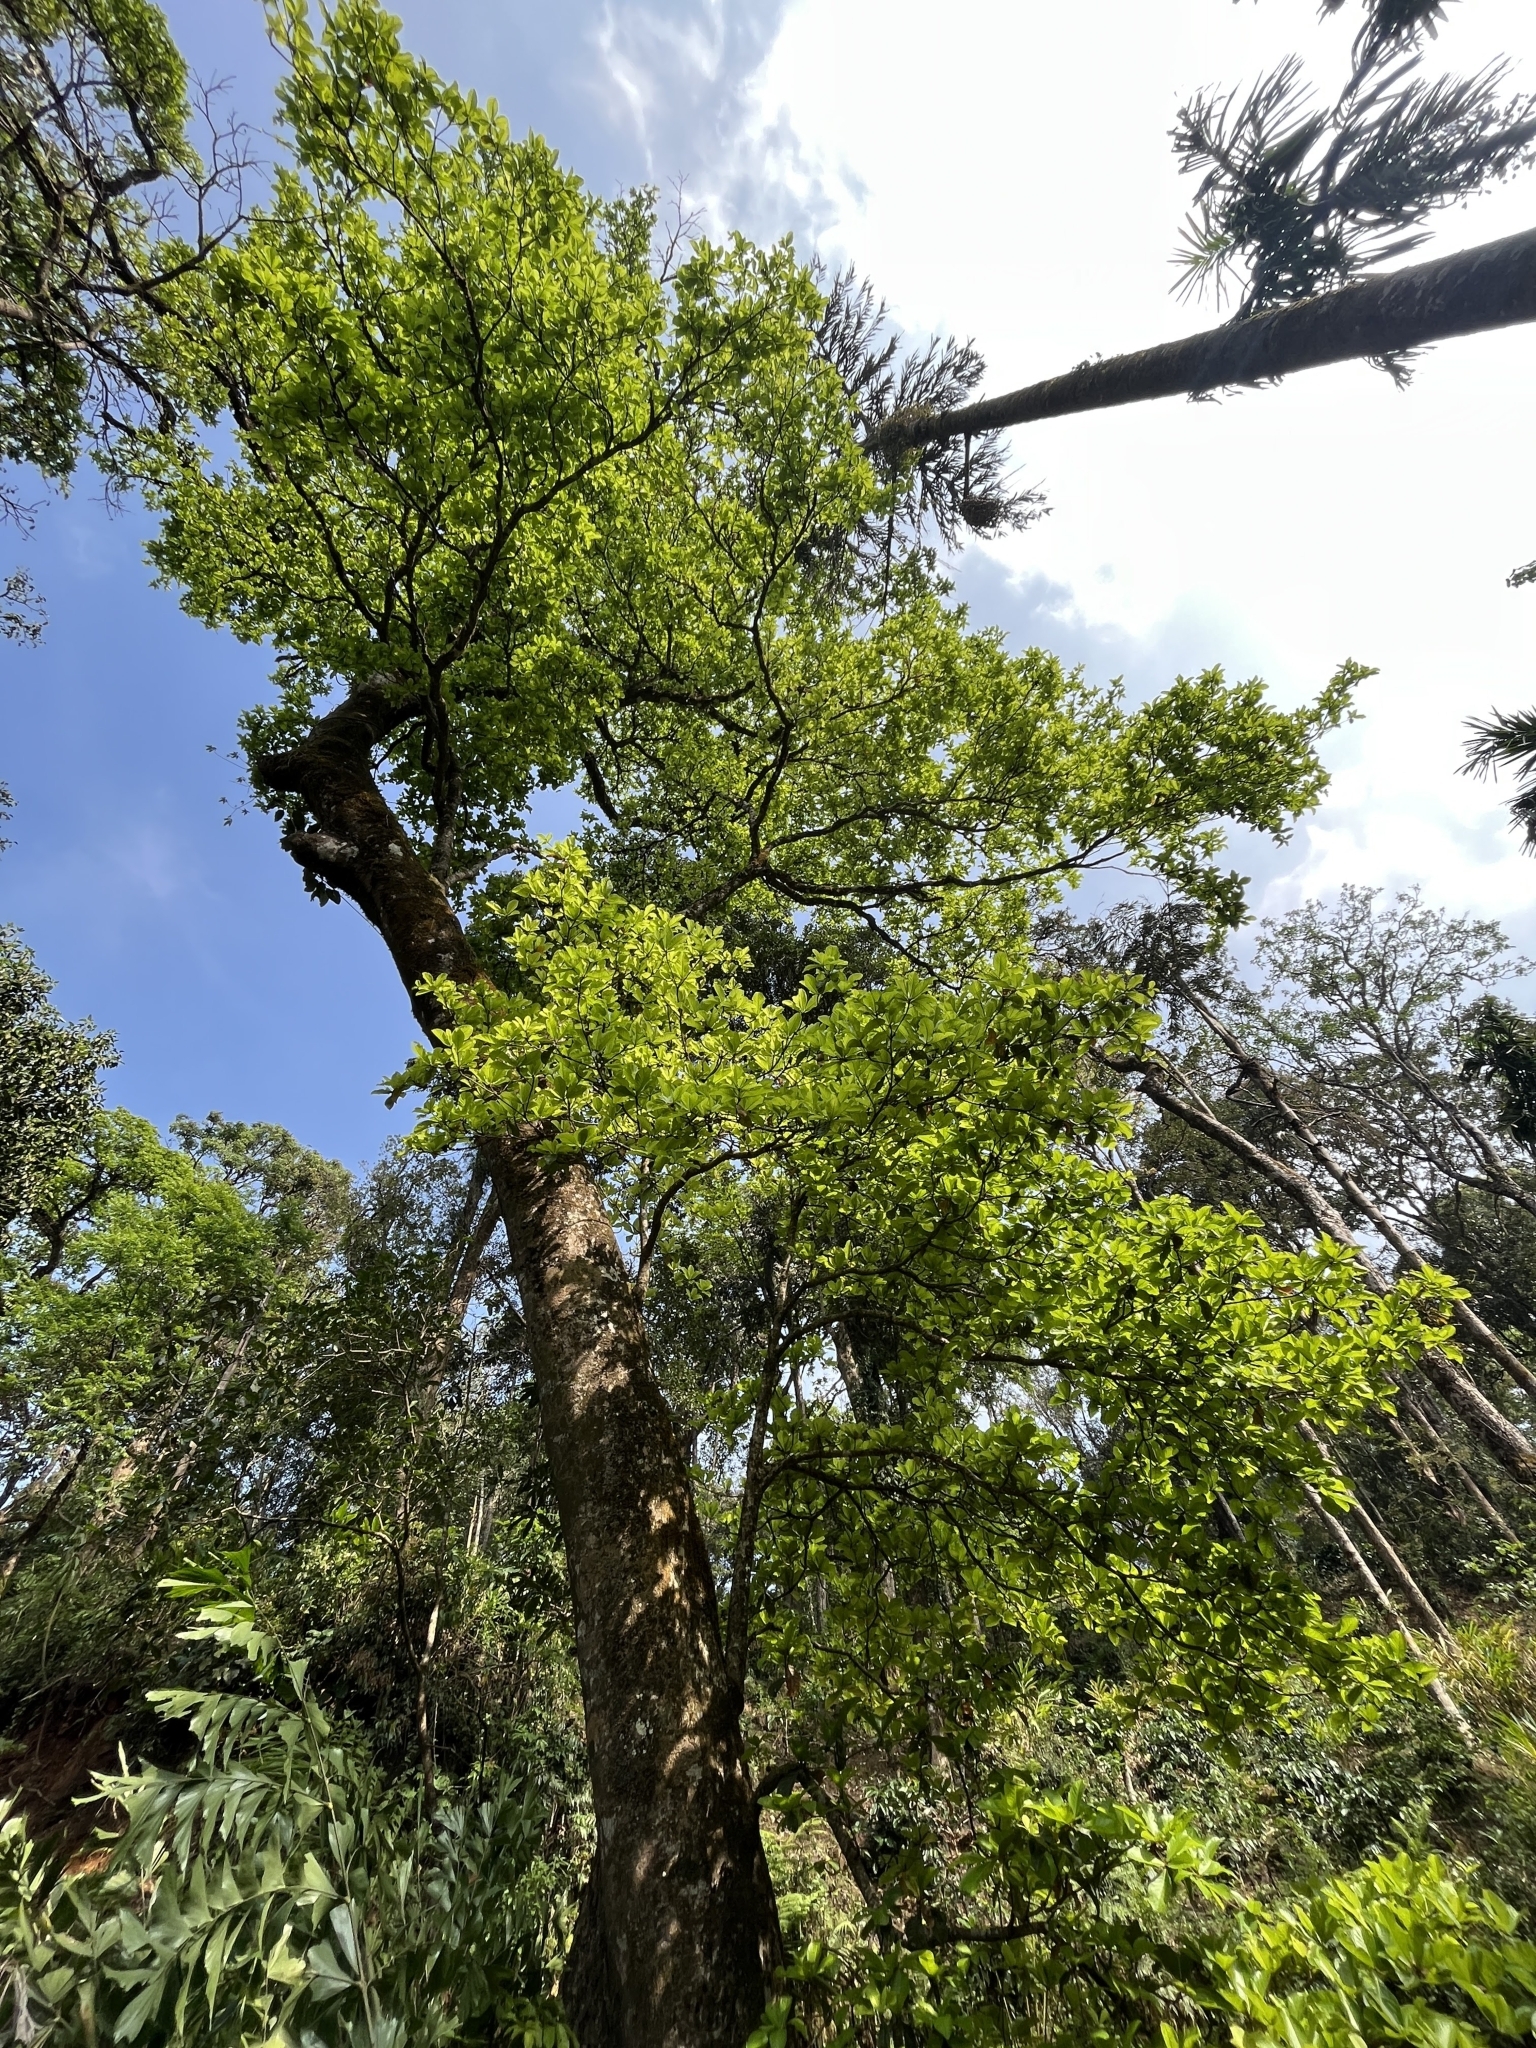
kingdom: Plantae
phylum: Tracheophyta
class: Magnoliopsida
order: Oxalidales
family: Elaeocarpaceae
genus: Elaeocarpus
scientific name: Elaeocarpus tuberculatus
